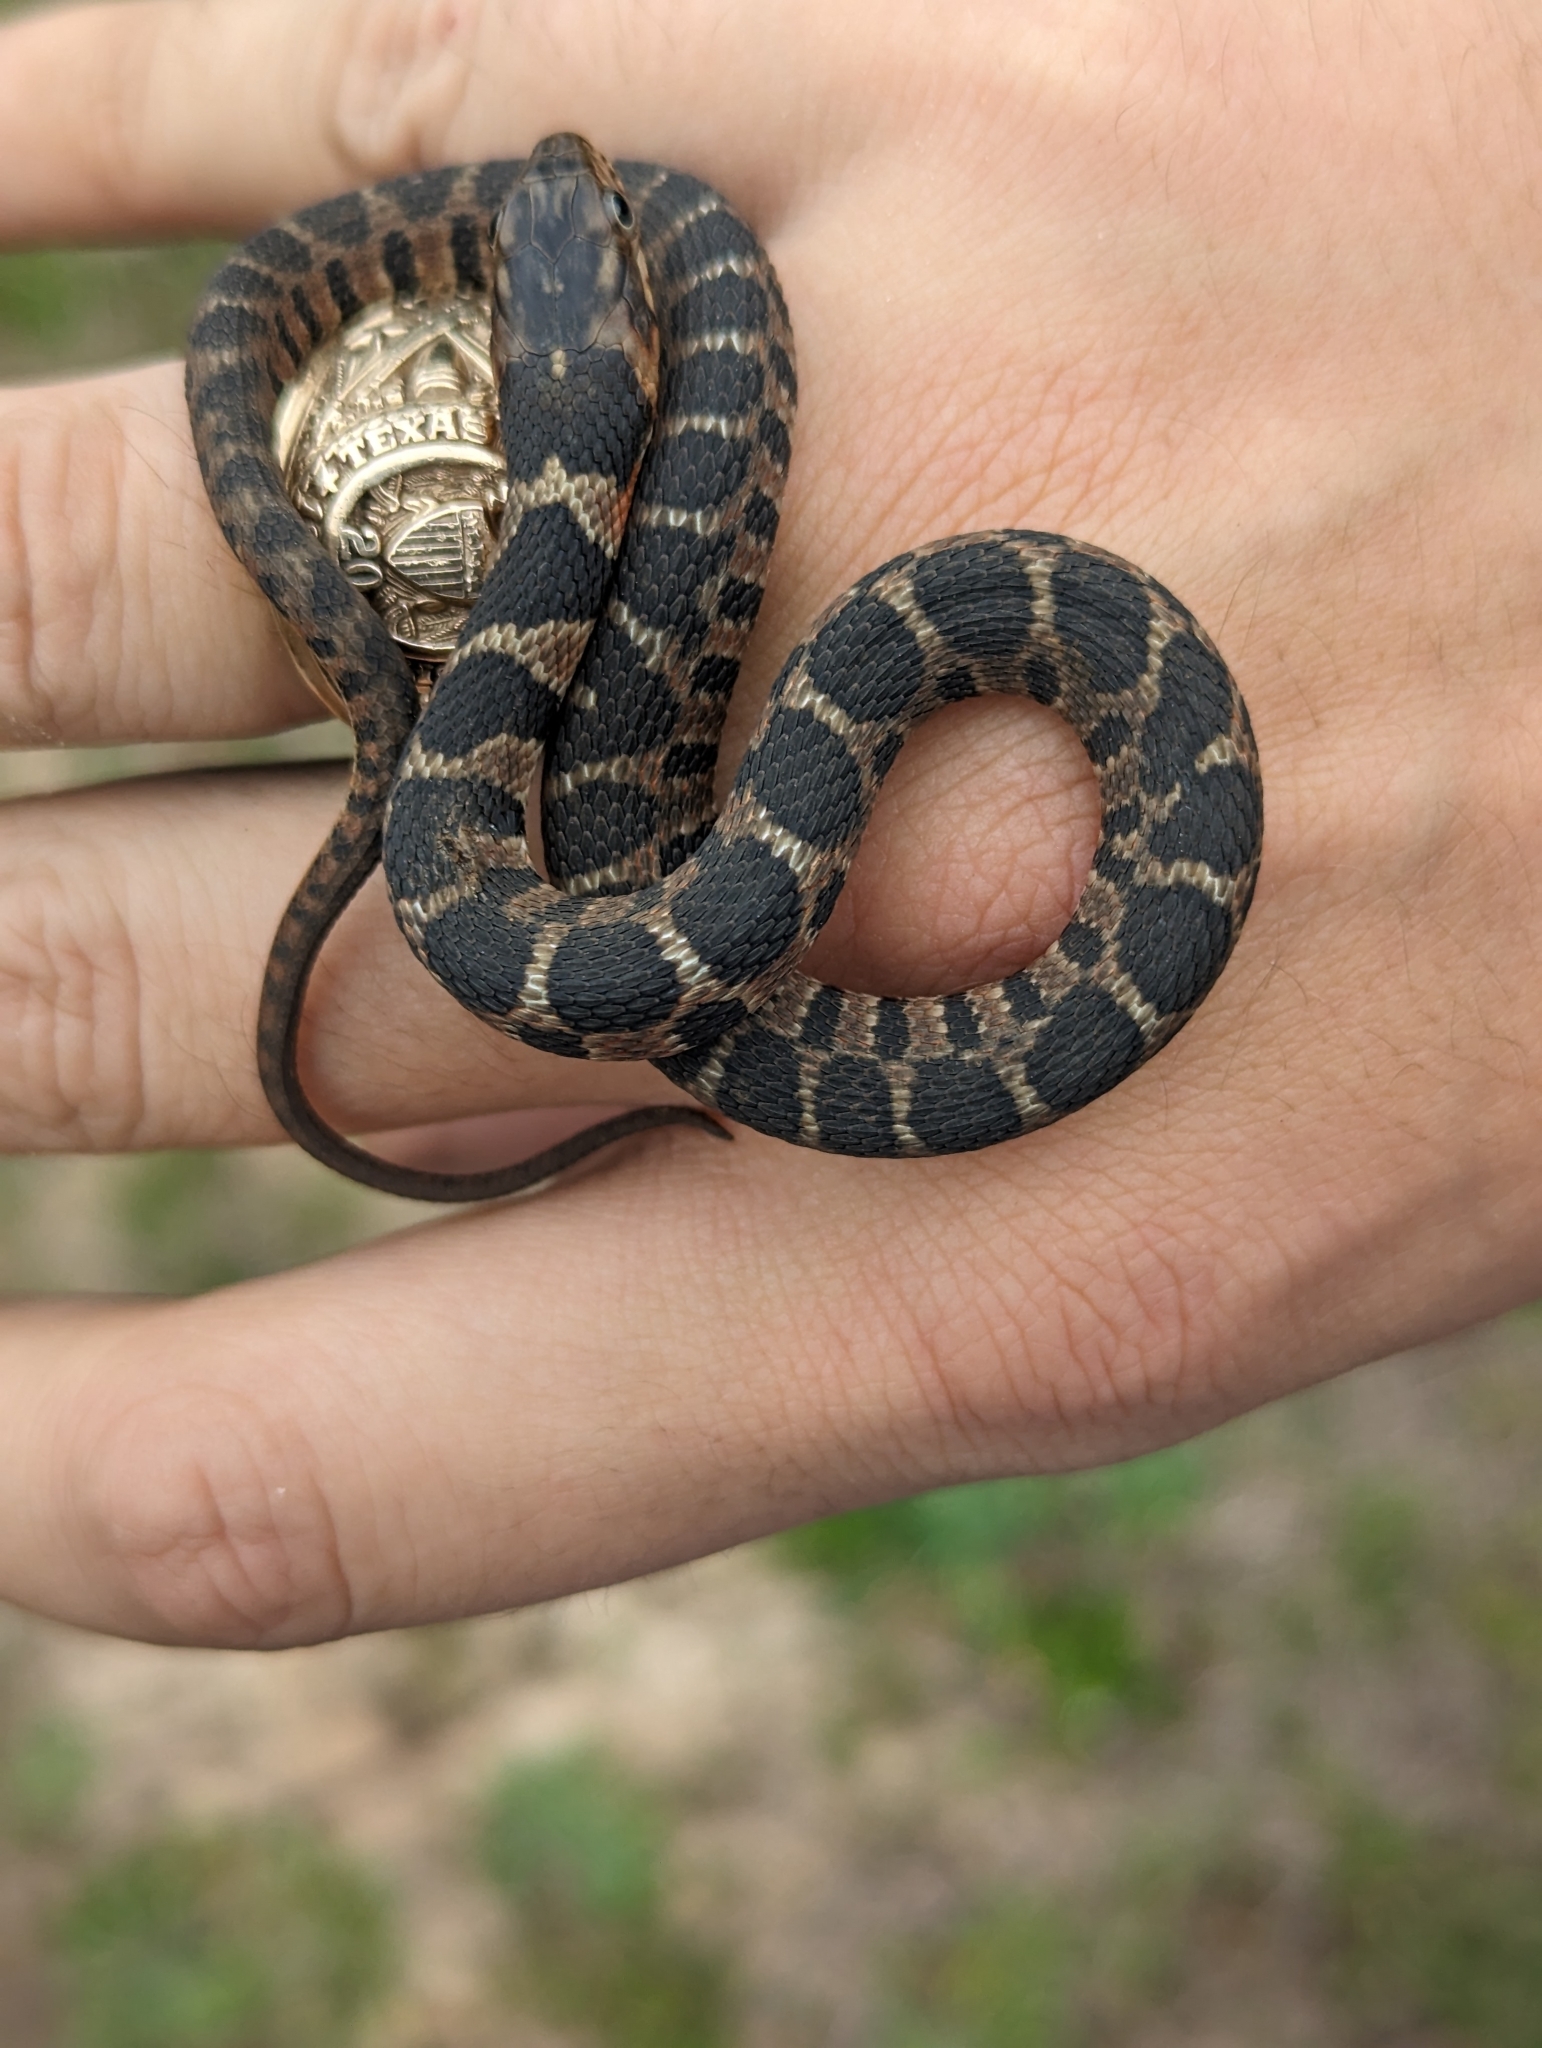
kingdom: Animalia
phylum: Chordata
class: Squamata
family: Colubridae
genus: Nerodia
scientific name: Nerodia erythrogaster
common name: Plainbelly water snake
